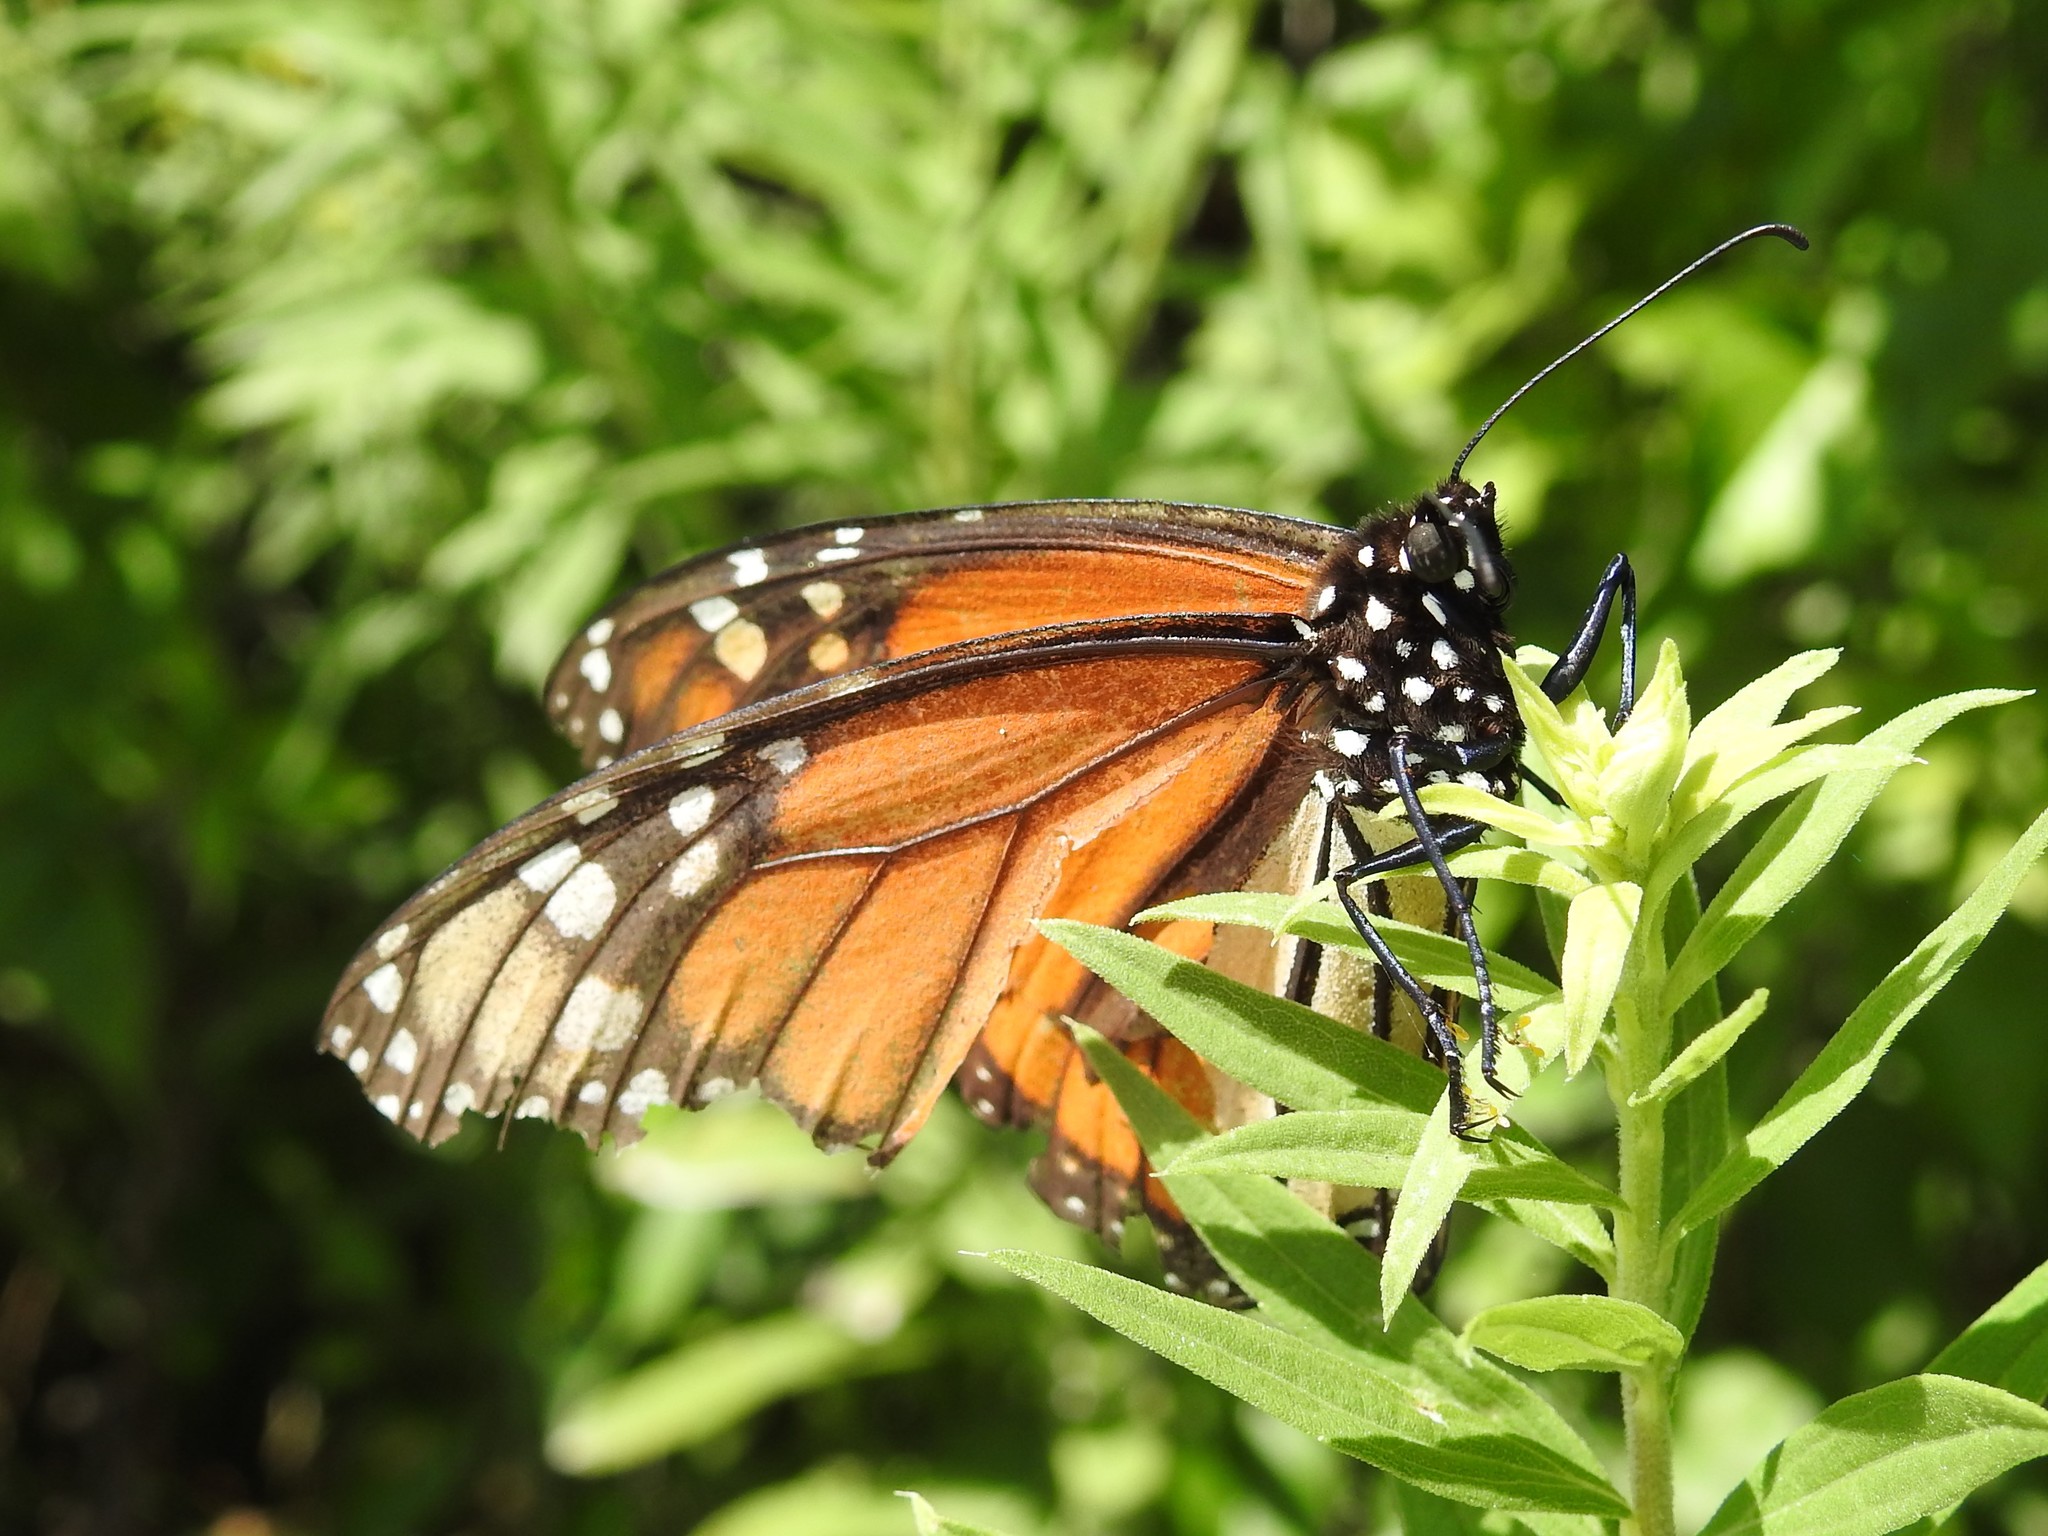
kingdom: Animalia
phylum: Arthropoda
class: Insecta
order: Lepidoptera
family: Nymphalidae
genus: Danaus
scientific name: Danaus plexippus
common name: Monarch
